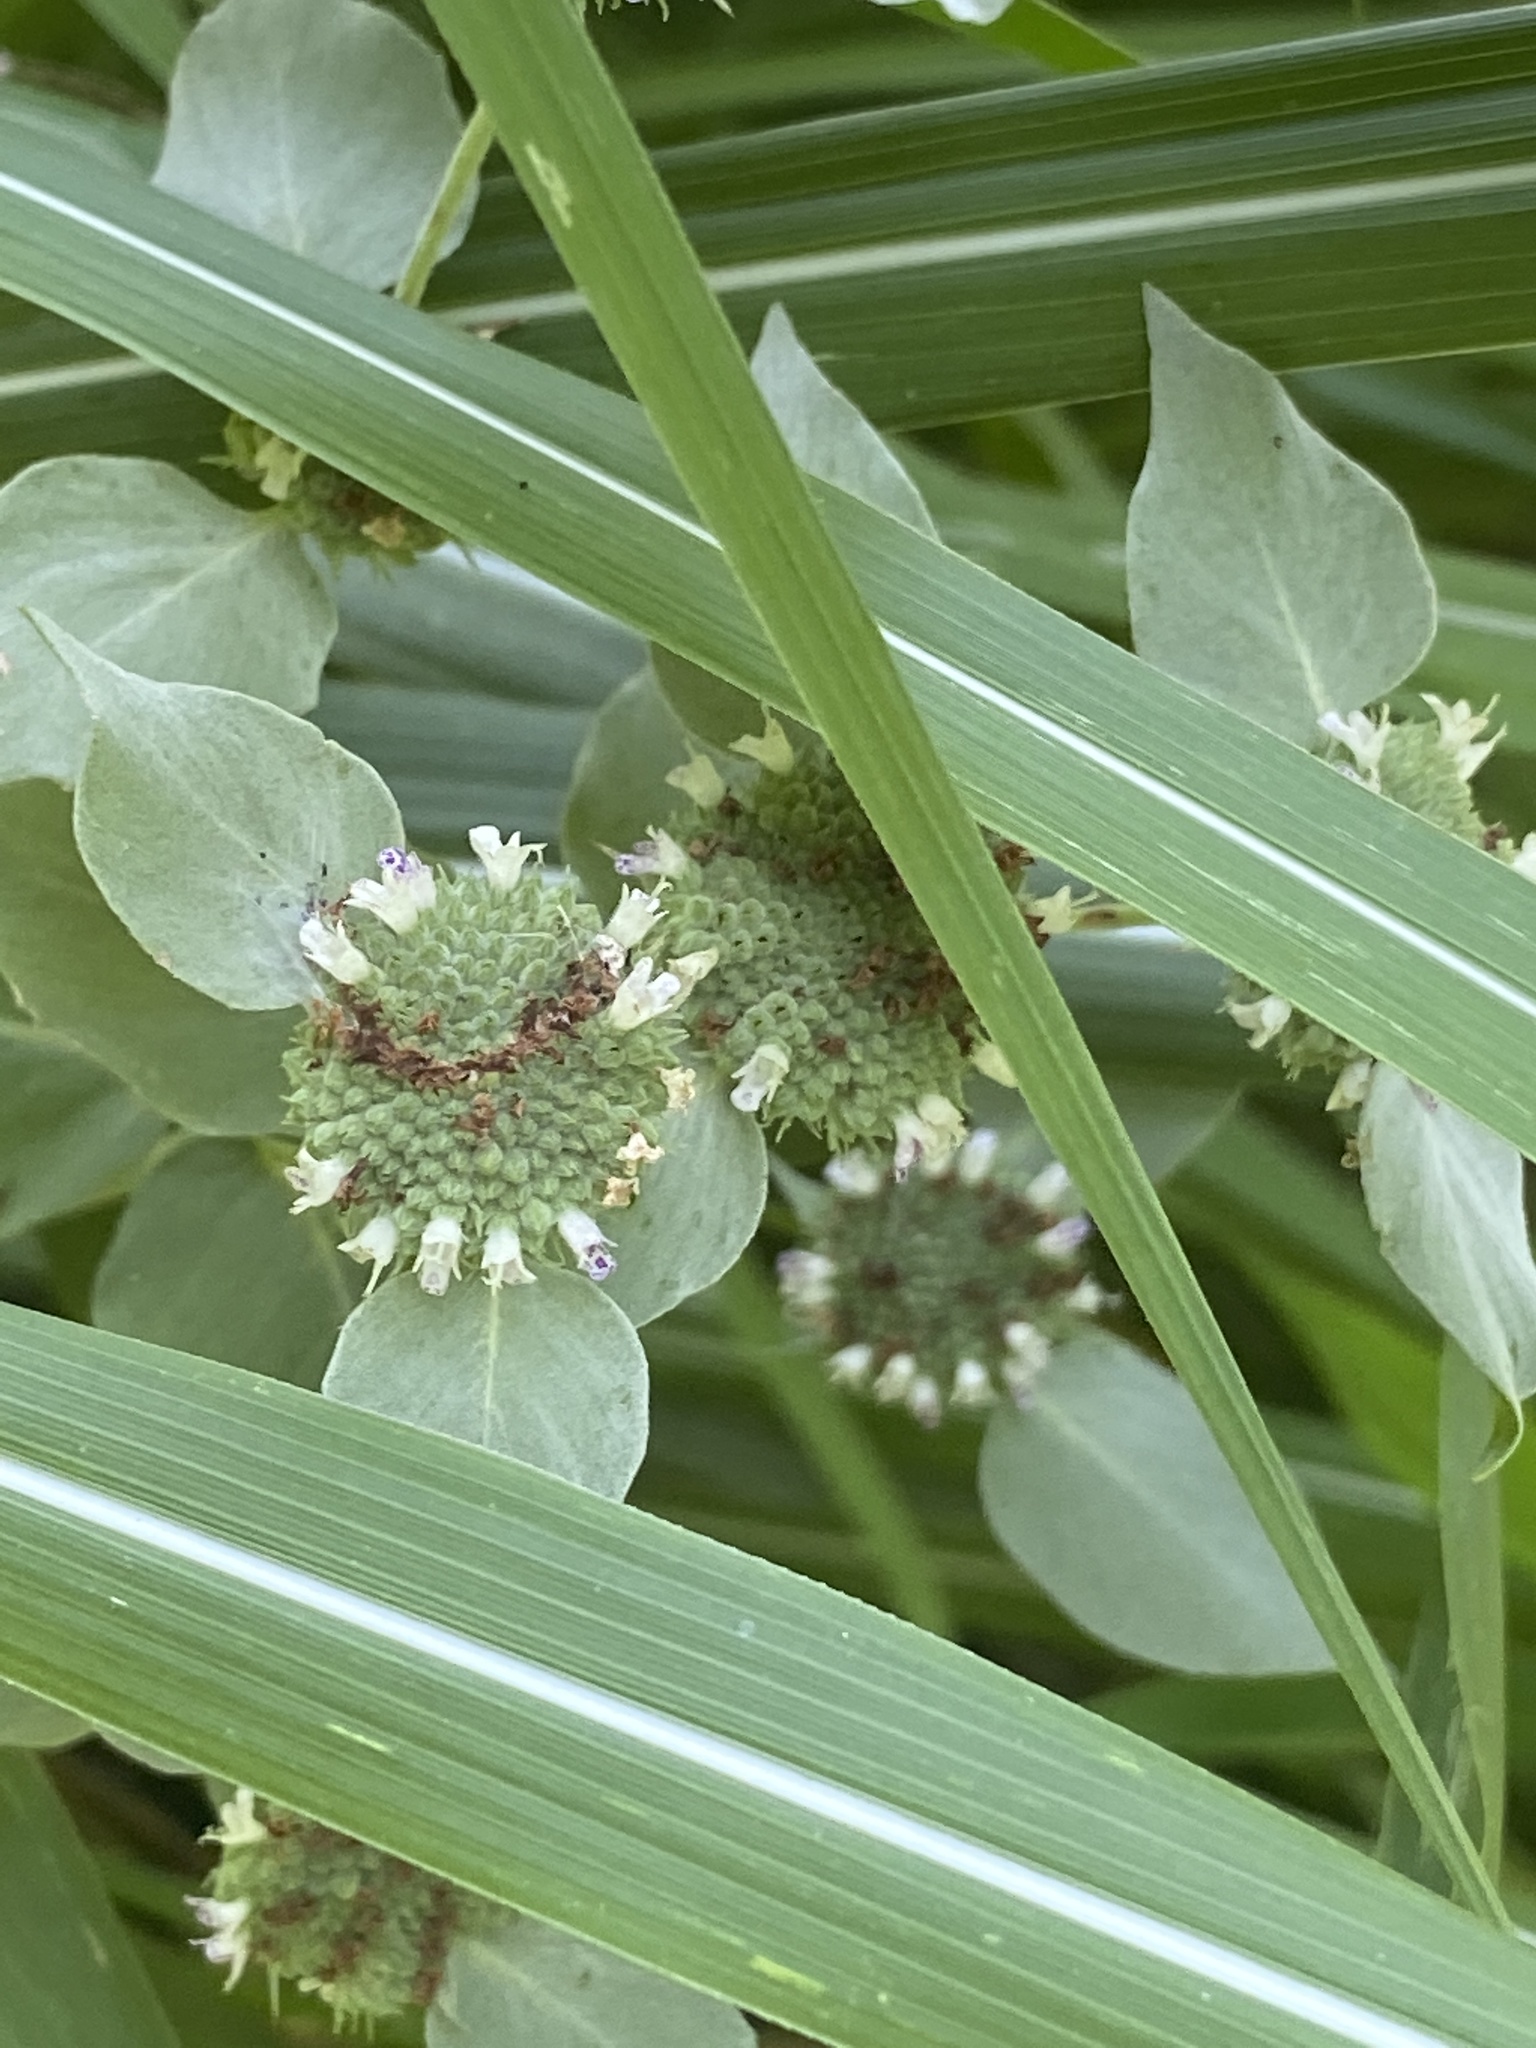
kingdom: Plantae
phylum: Tracheophyta
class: Magnoliopsida
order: Lamiales
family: Lamiaceae
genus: Pycnanthemum
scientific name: Pycnanthemum muticum
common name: Blunt mountain-mint
